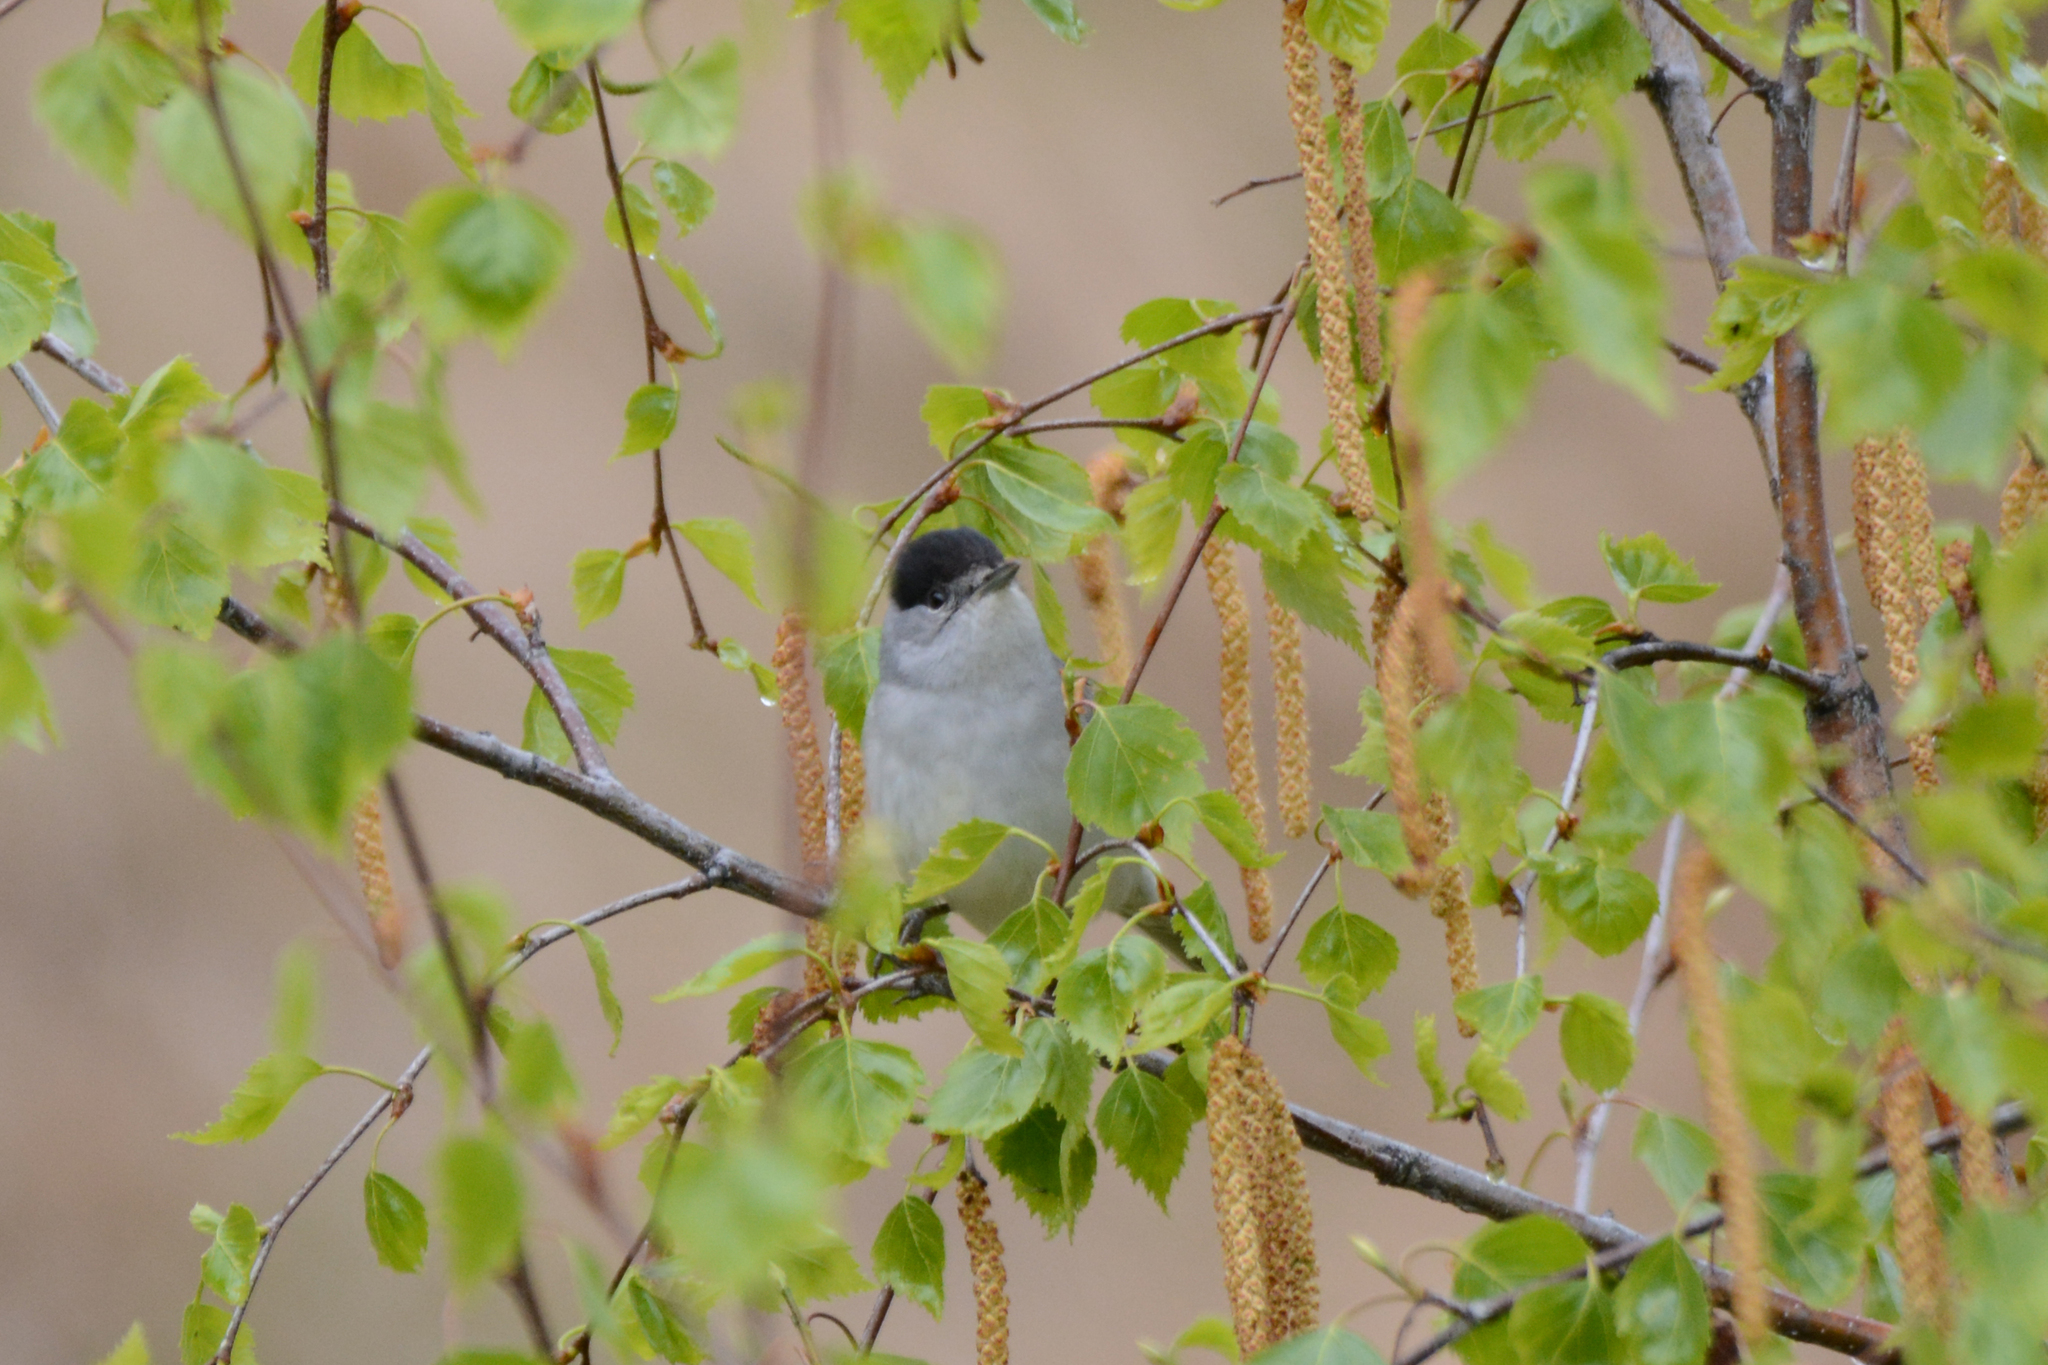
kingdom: Animalia
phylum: Chordata
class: Aves
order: Passeriformes
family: Sylviidae
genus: Sylvia
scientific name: Sylvia atricapilla
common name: Eurasian blackcap
